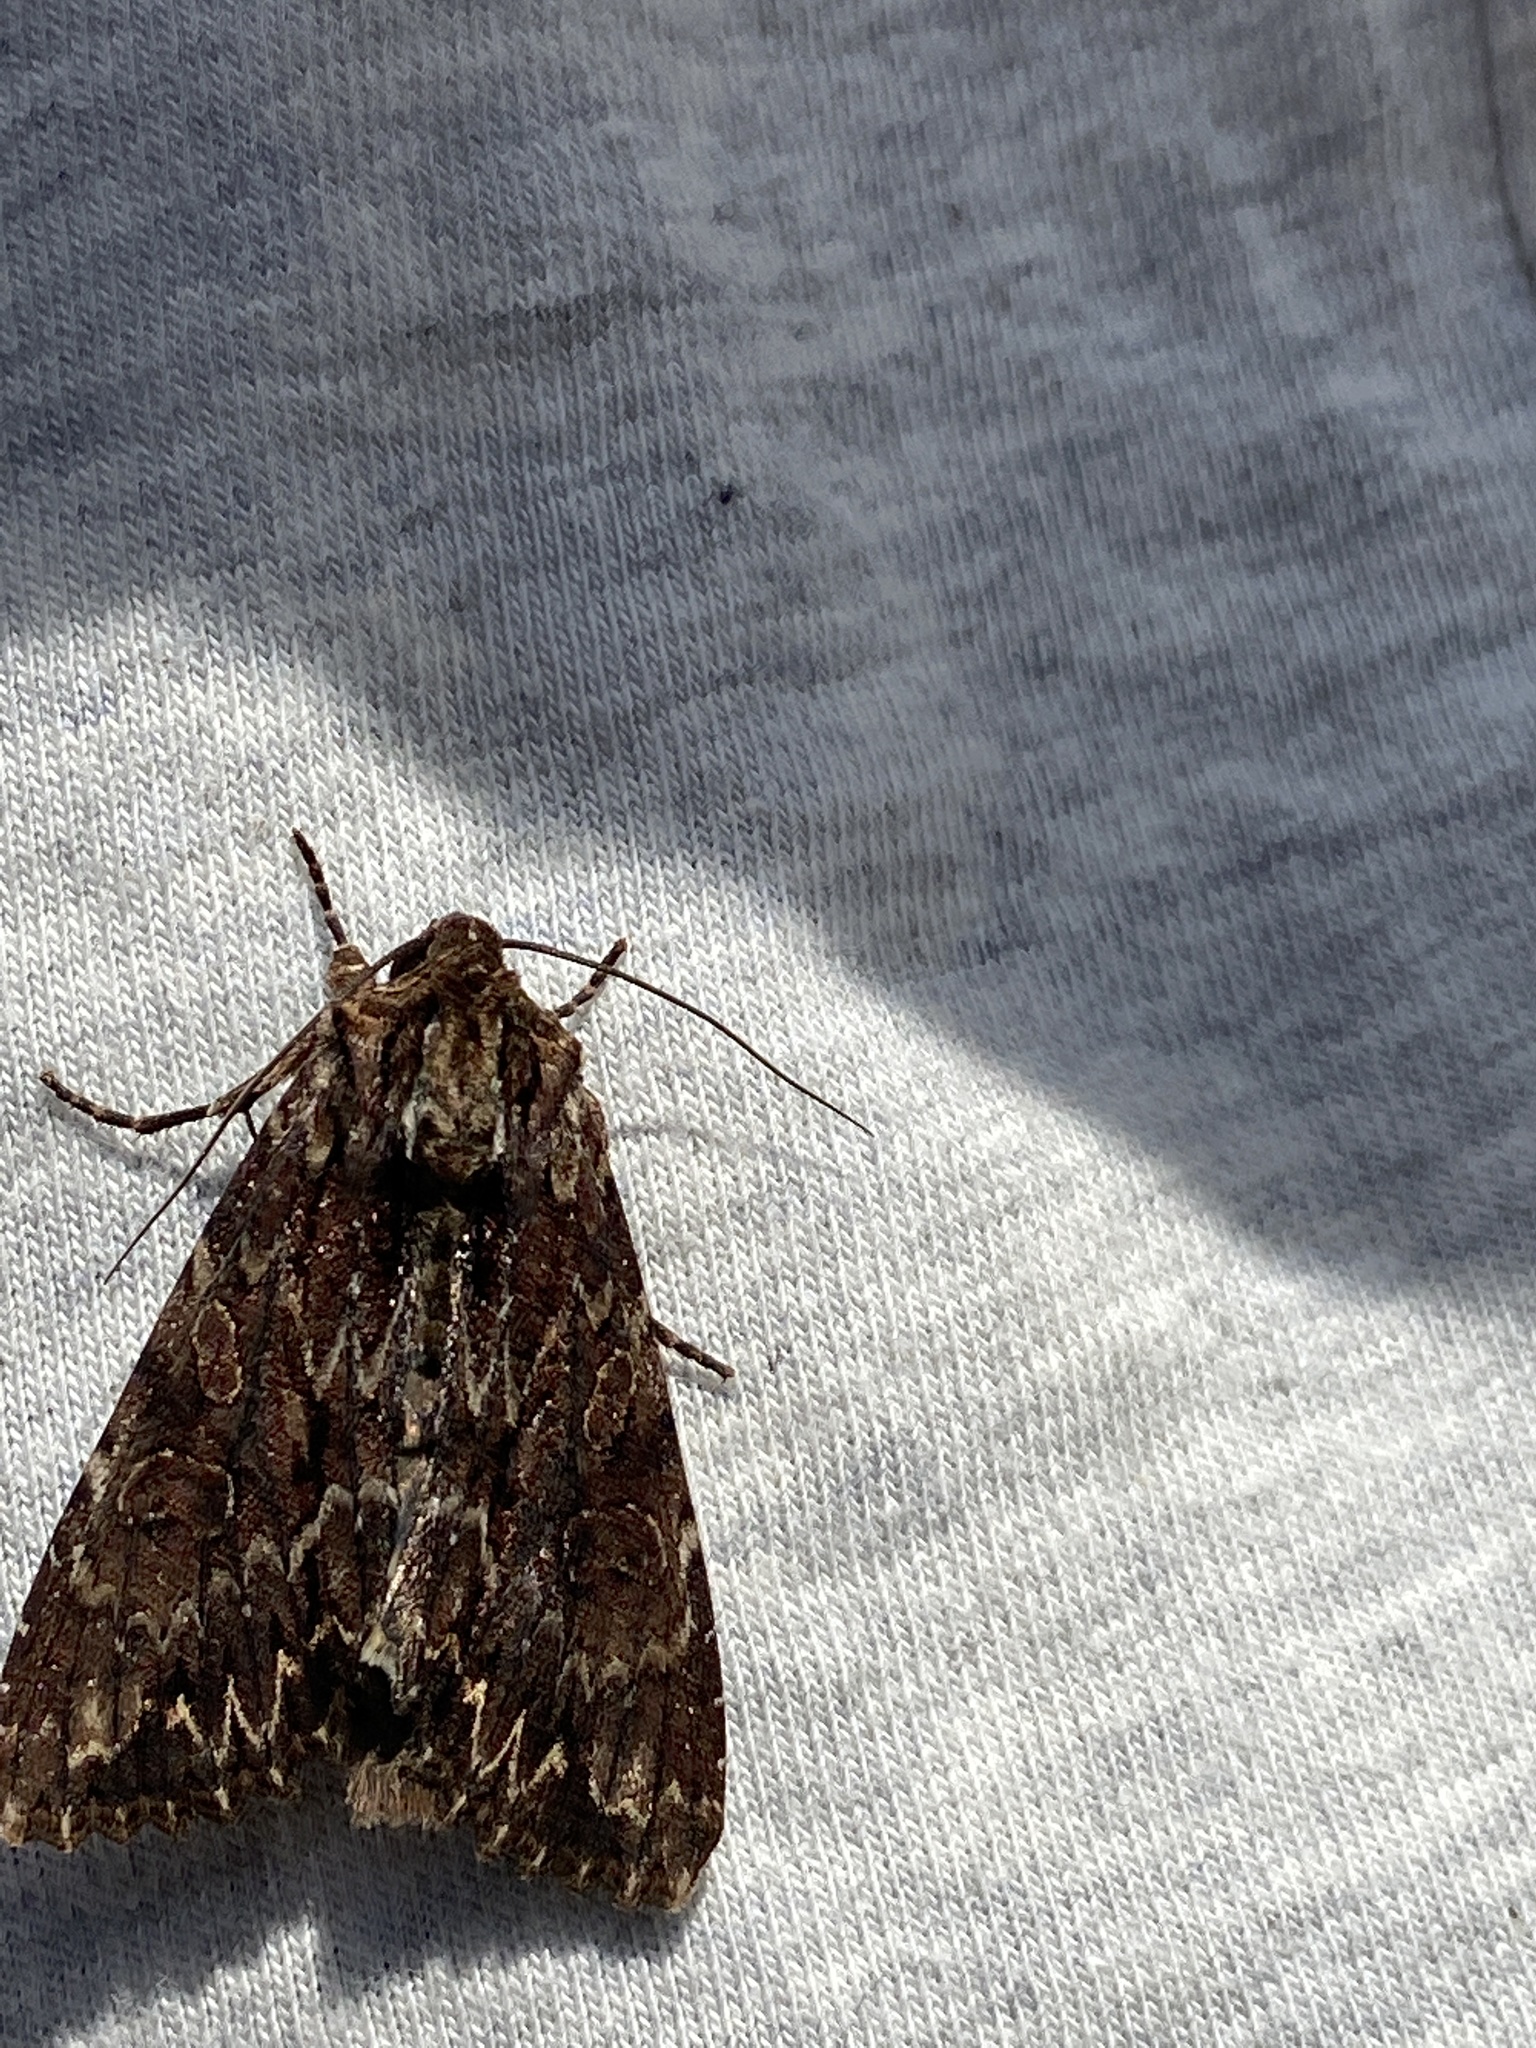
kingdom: Animalia
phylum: Arthropoda
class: Insecta
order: Lepidoptera
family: Noctuidae
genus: Apamea
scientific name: Apamea monoglypha
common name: Dark arches
